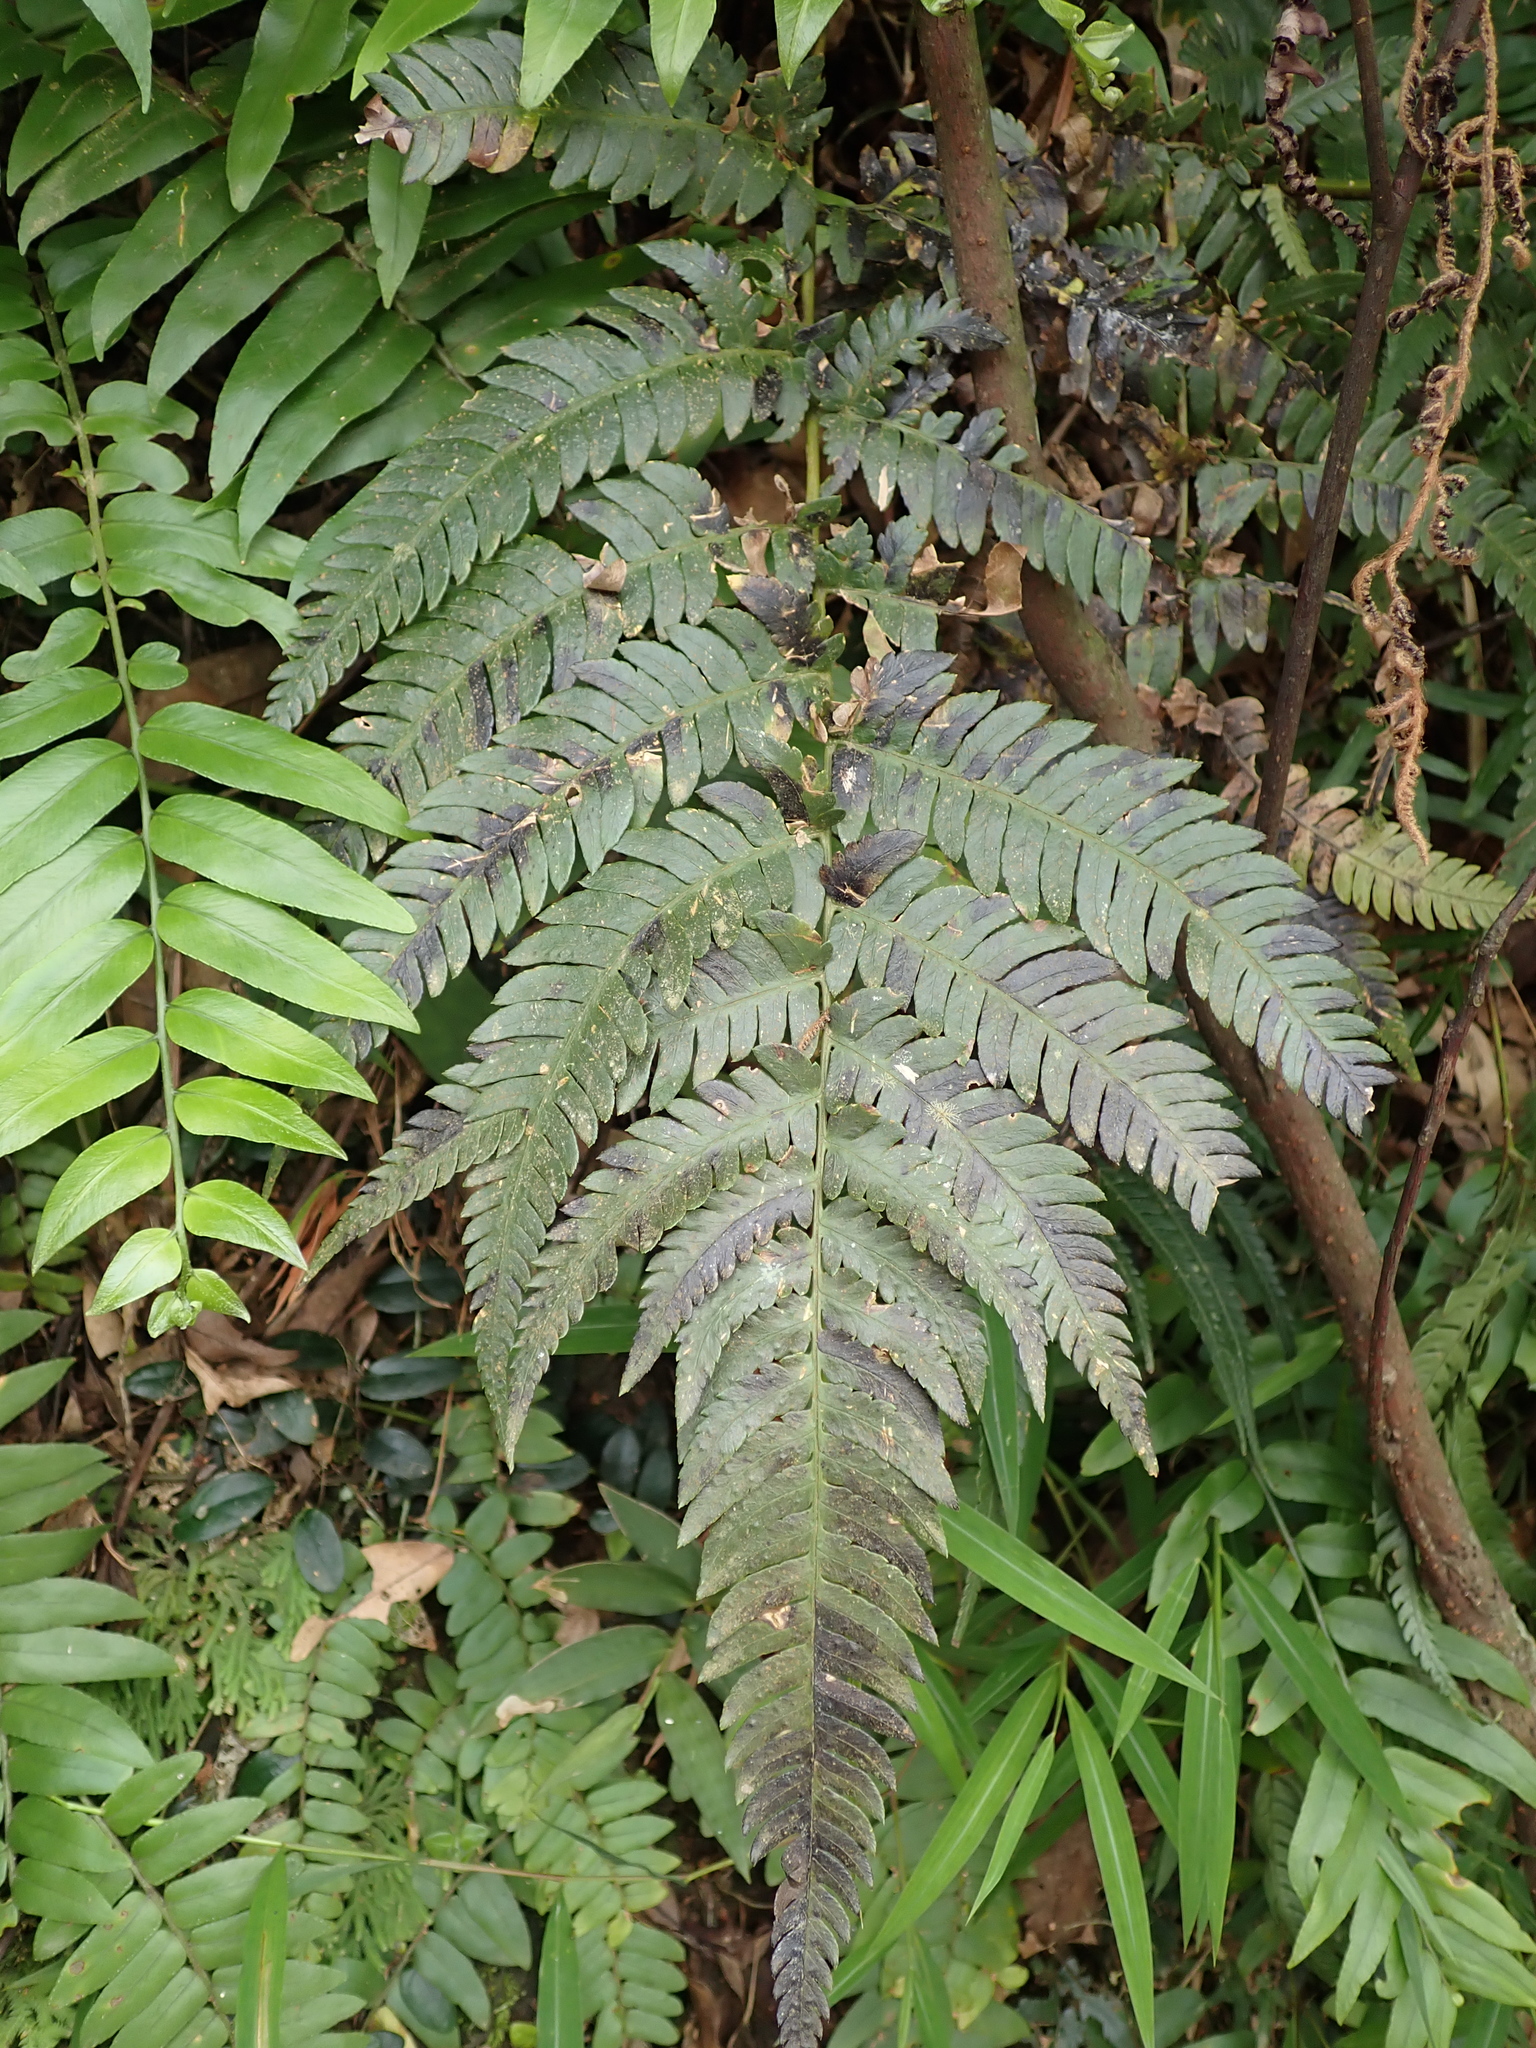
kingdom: Plantae
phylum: Tracheophyta
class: Polypodiopsida
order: Polypodiales
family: Dryopteridaceae
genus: Dryopteris
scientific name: Dryopteris varia
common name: Japanese holly fern
